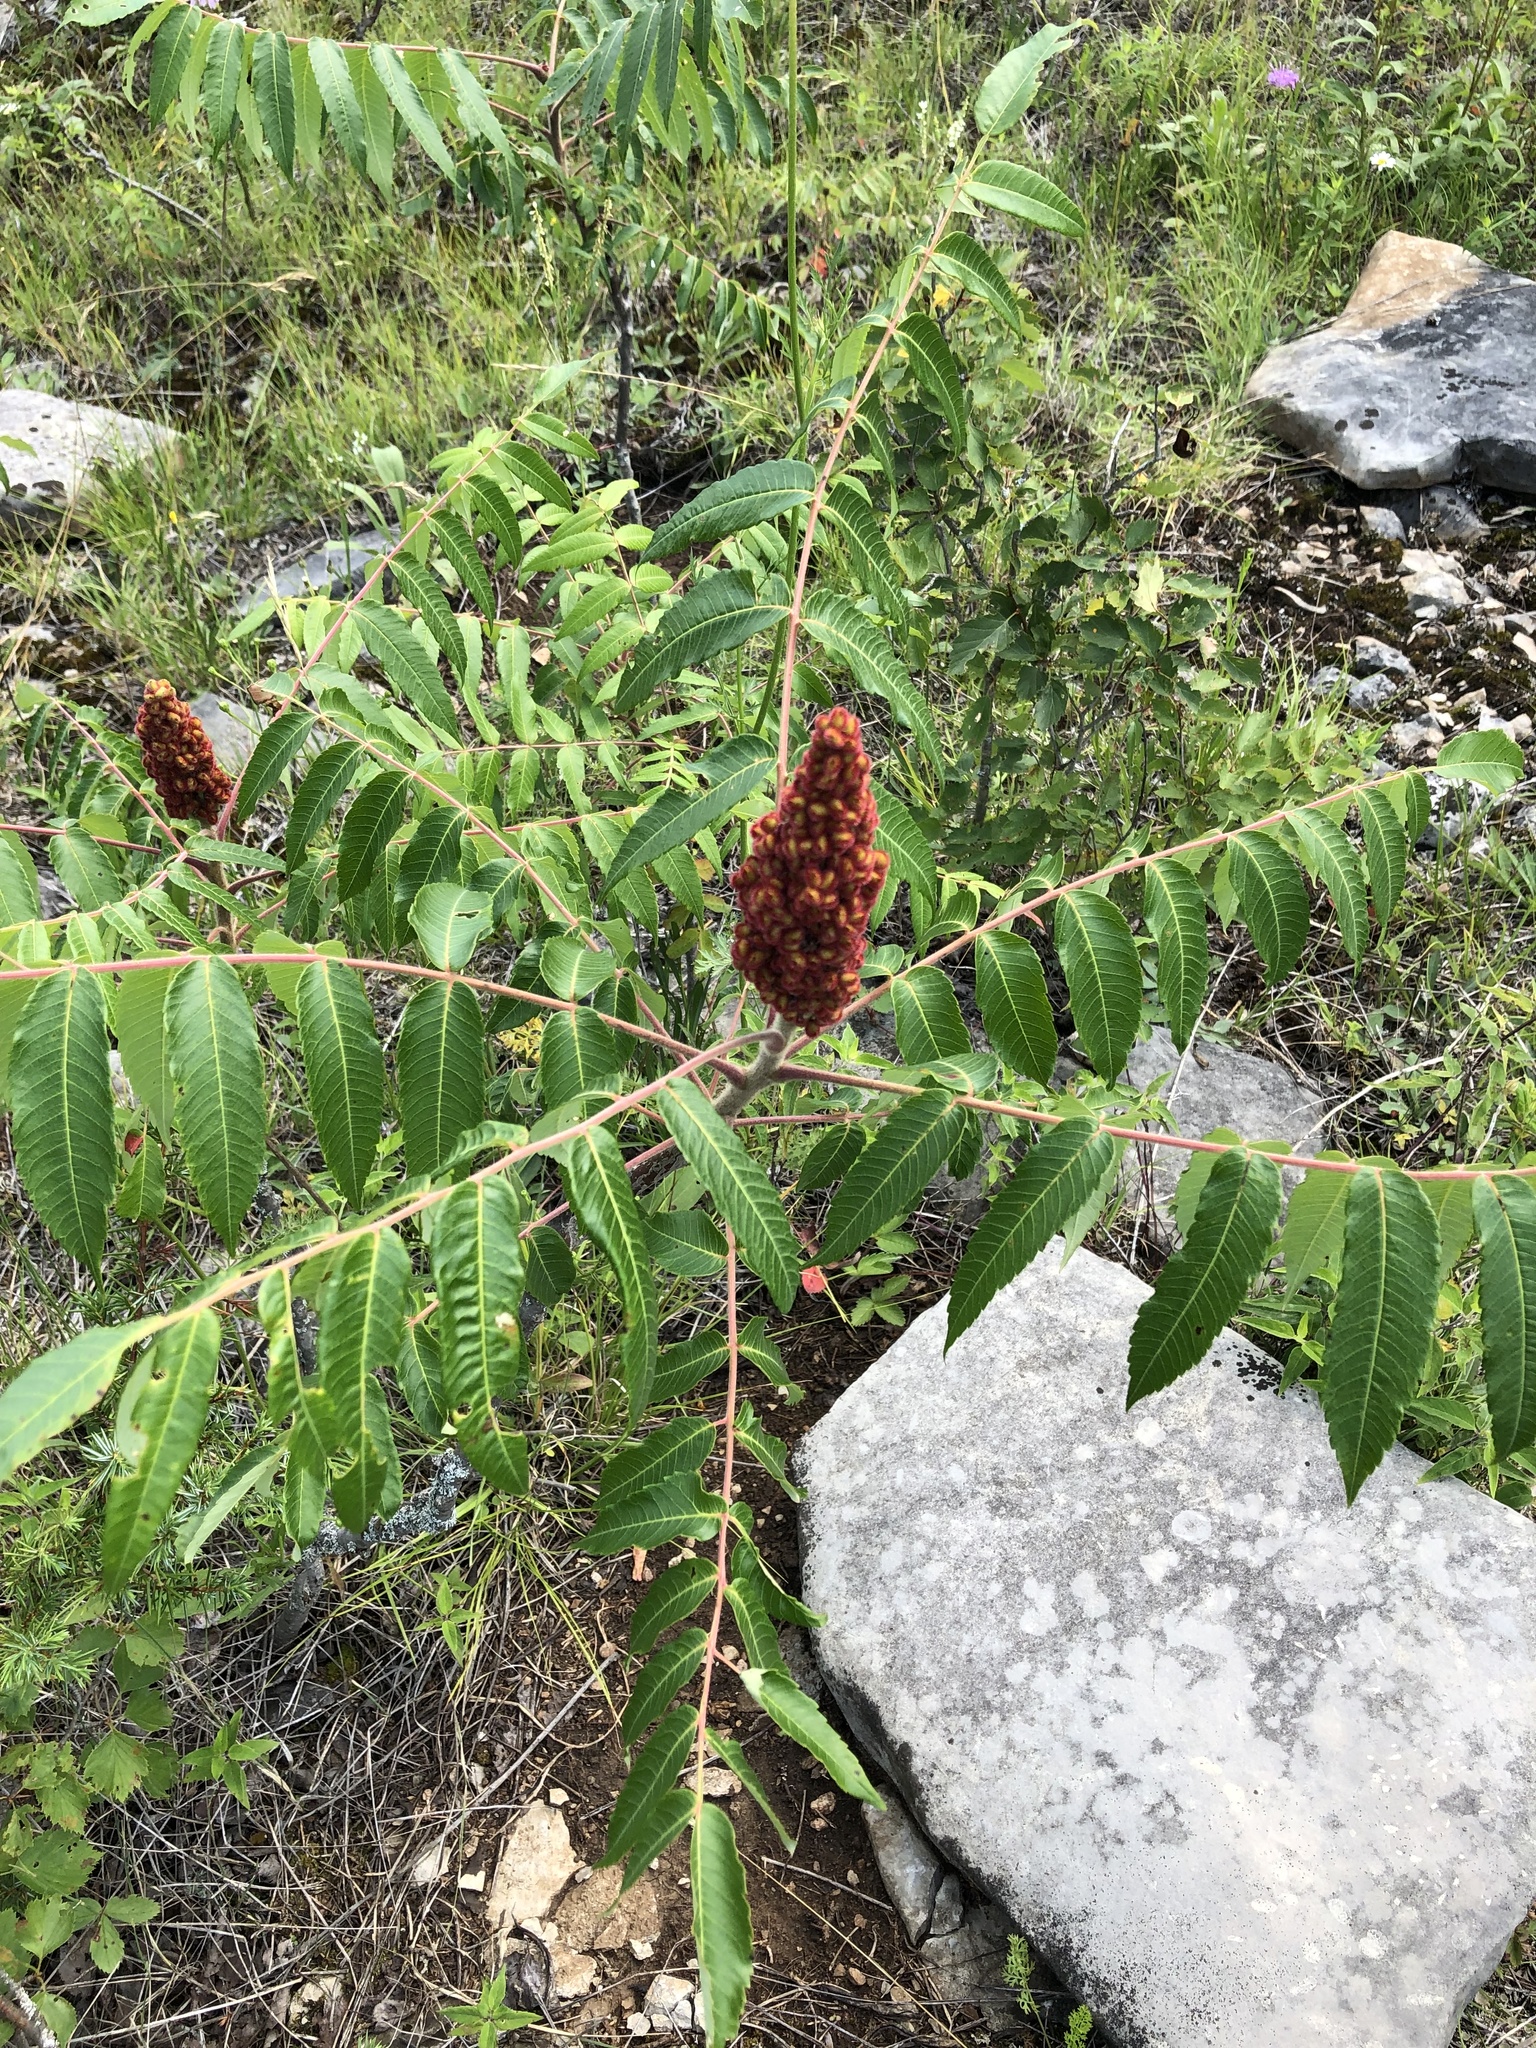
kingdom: Plantae
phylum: Tracheophyta
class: Magnoliopsida
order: Sapindales
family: Anacardiaceae
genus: Rhus
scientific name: Rhus typhina
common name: Staghorn sumac
